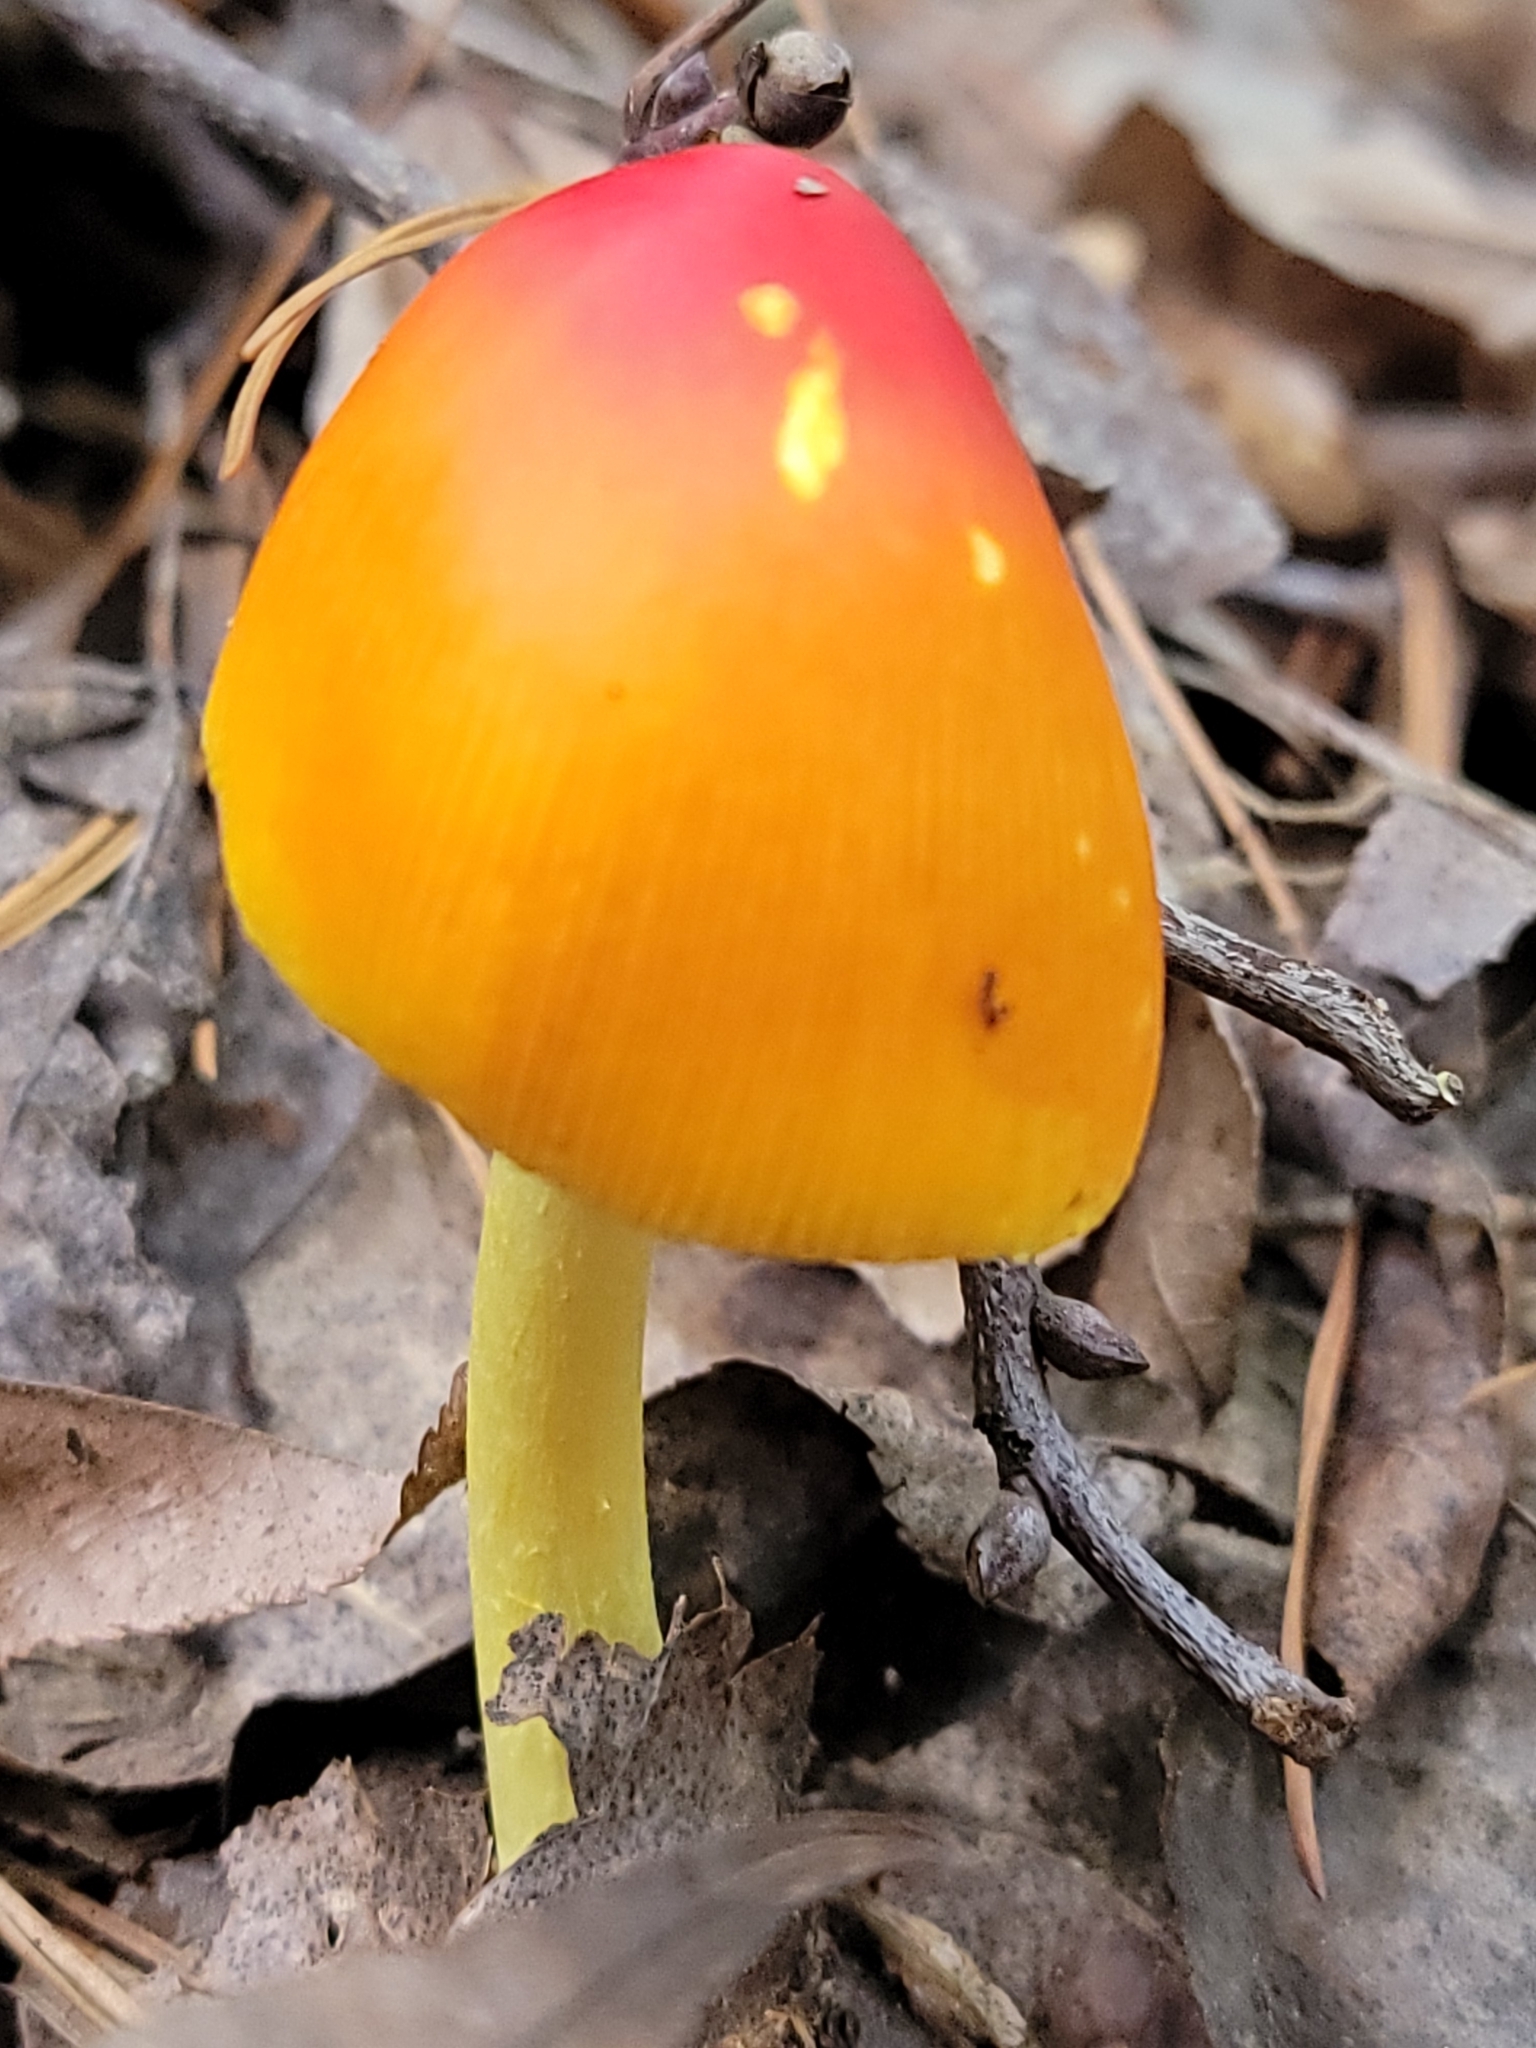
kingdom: Fungi
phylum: Basidiomycota
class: Agaricomycetes
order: Agaricales
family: Amanitaceae
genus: Amanita
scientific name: Amanita jacksonii
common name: Jackson's slender caesar
